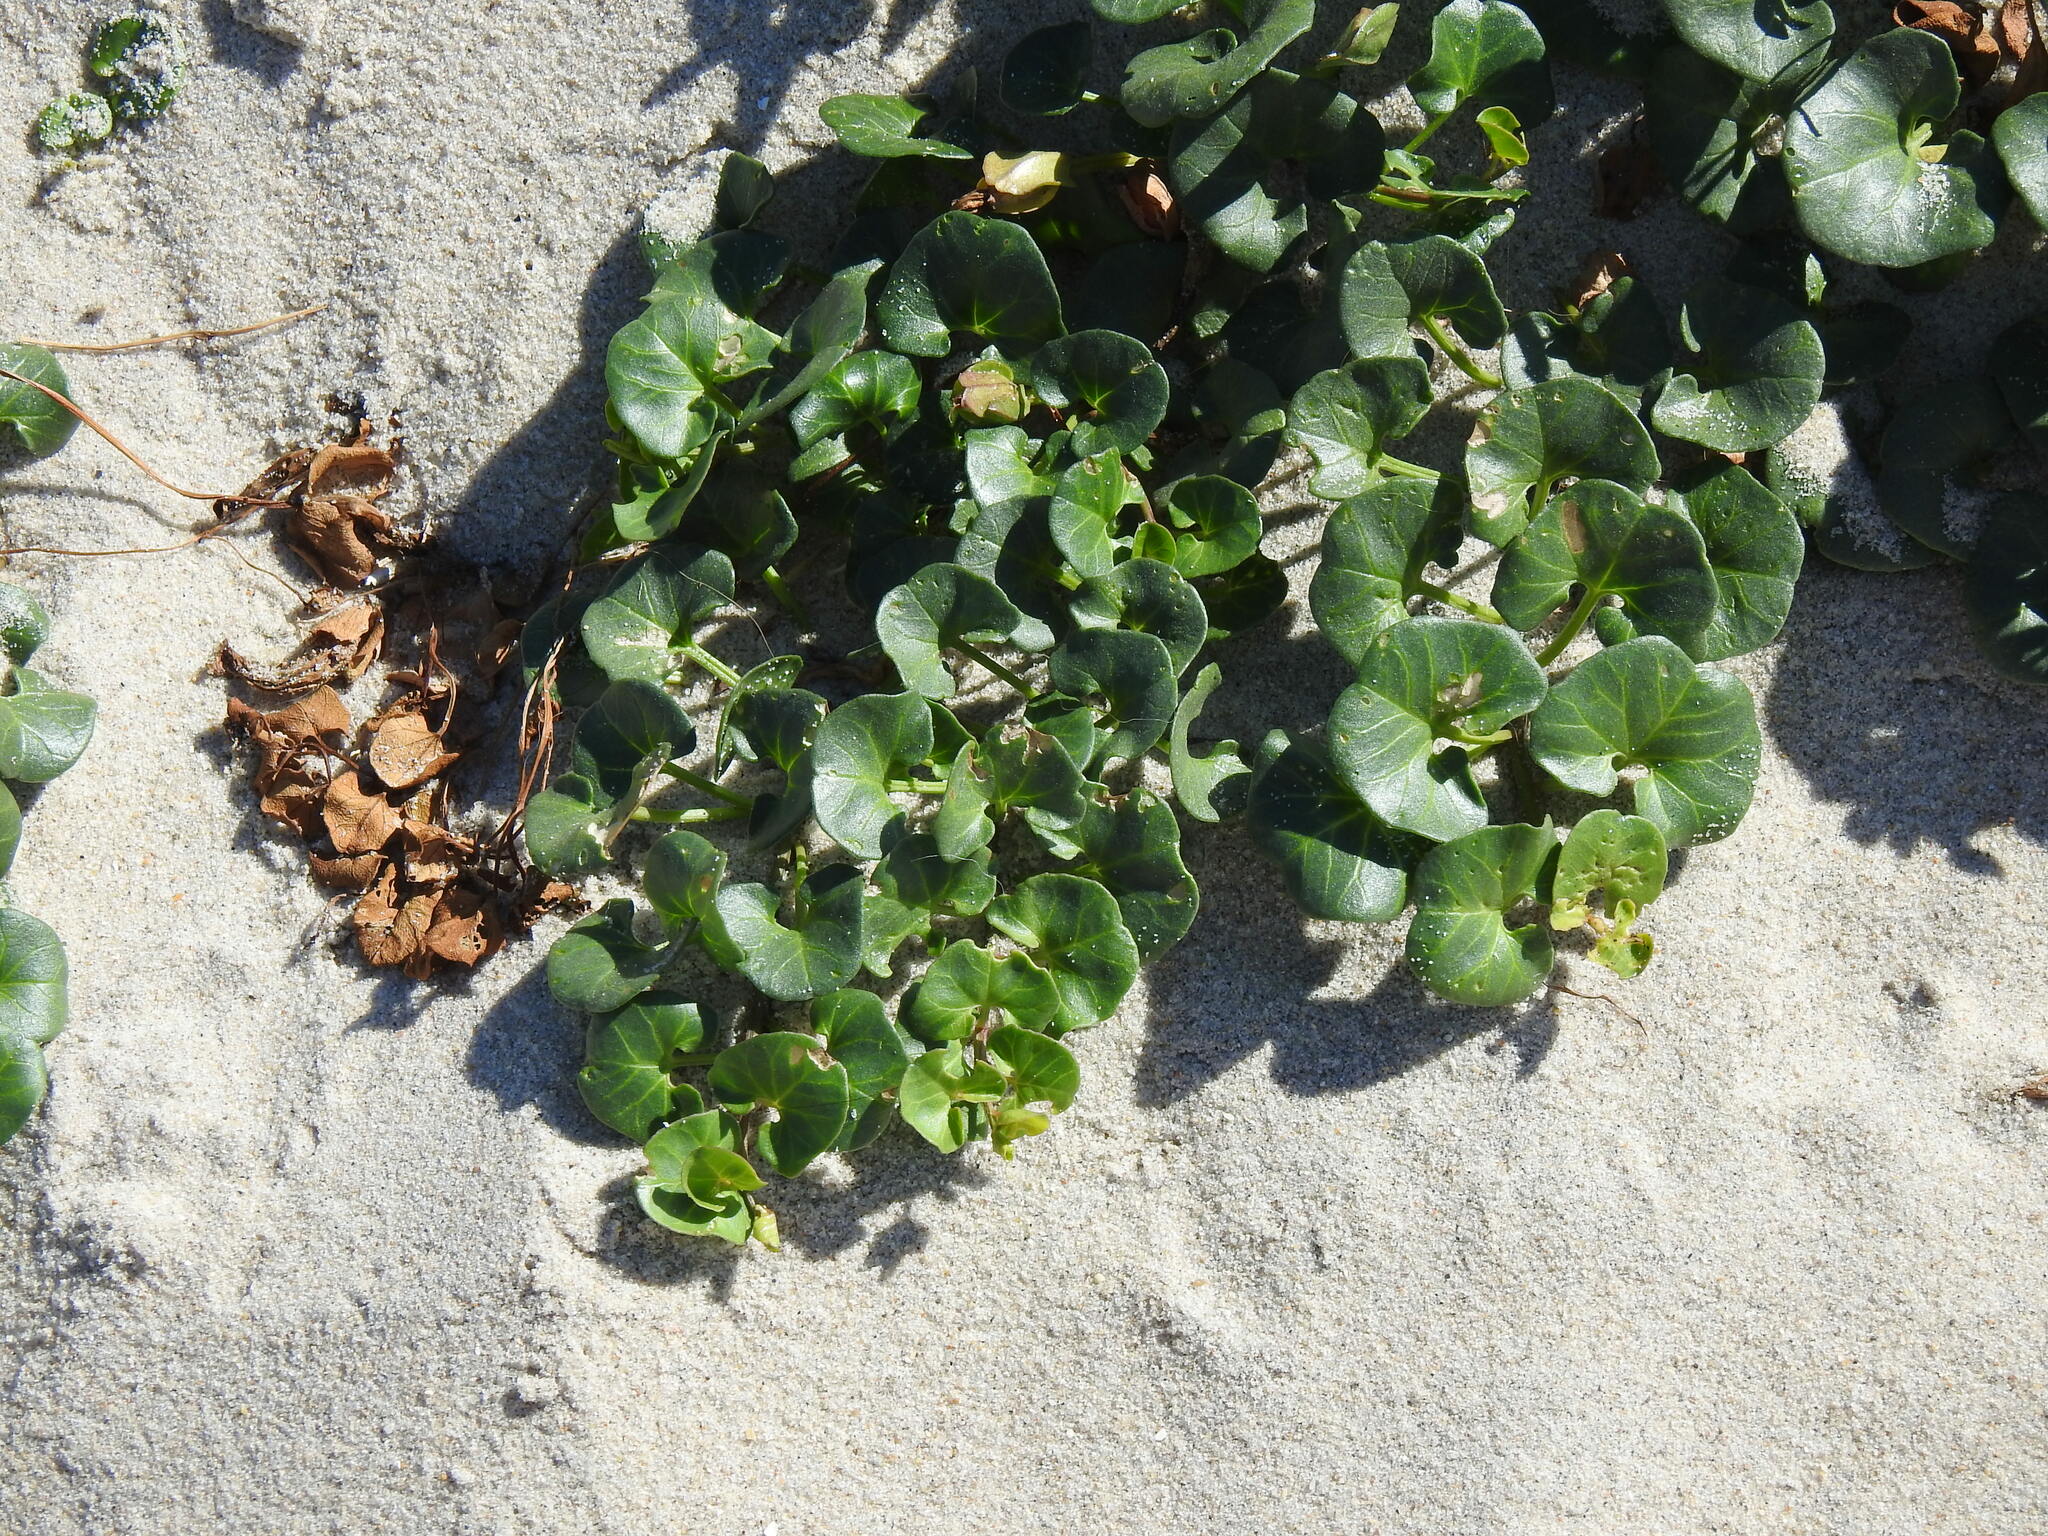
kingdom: Plantae
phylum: Tracheophyta
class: Magnoliopsida
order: Solanales
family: Convolvulaceae
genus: Calystegia
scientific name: Calystegia soldanella
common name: Sea bindweed
